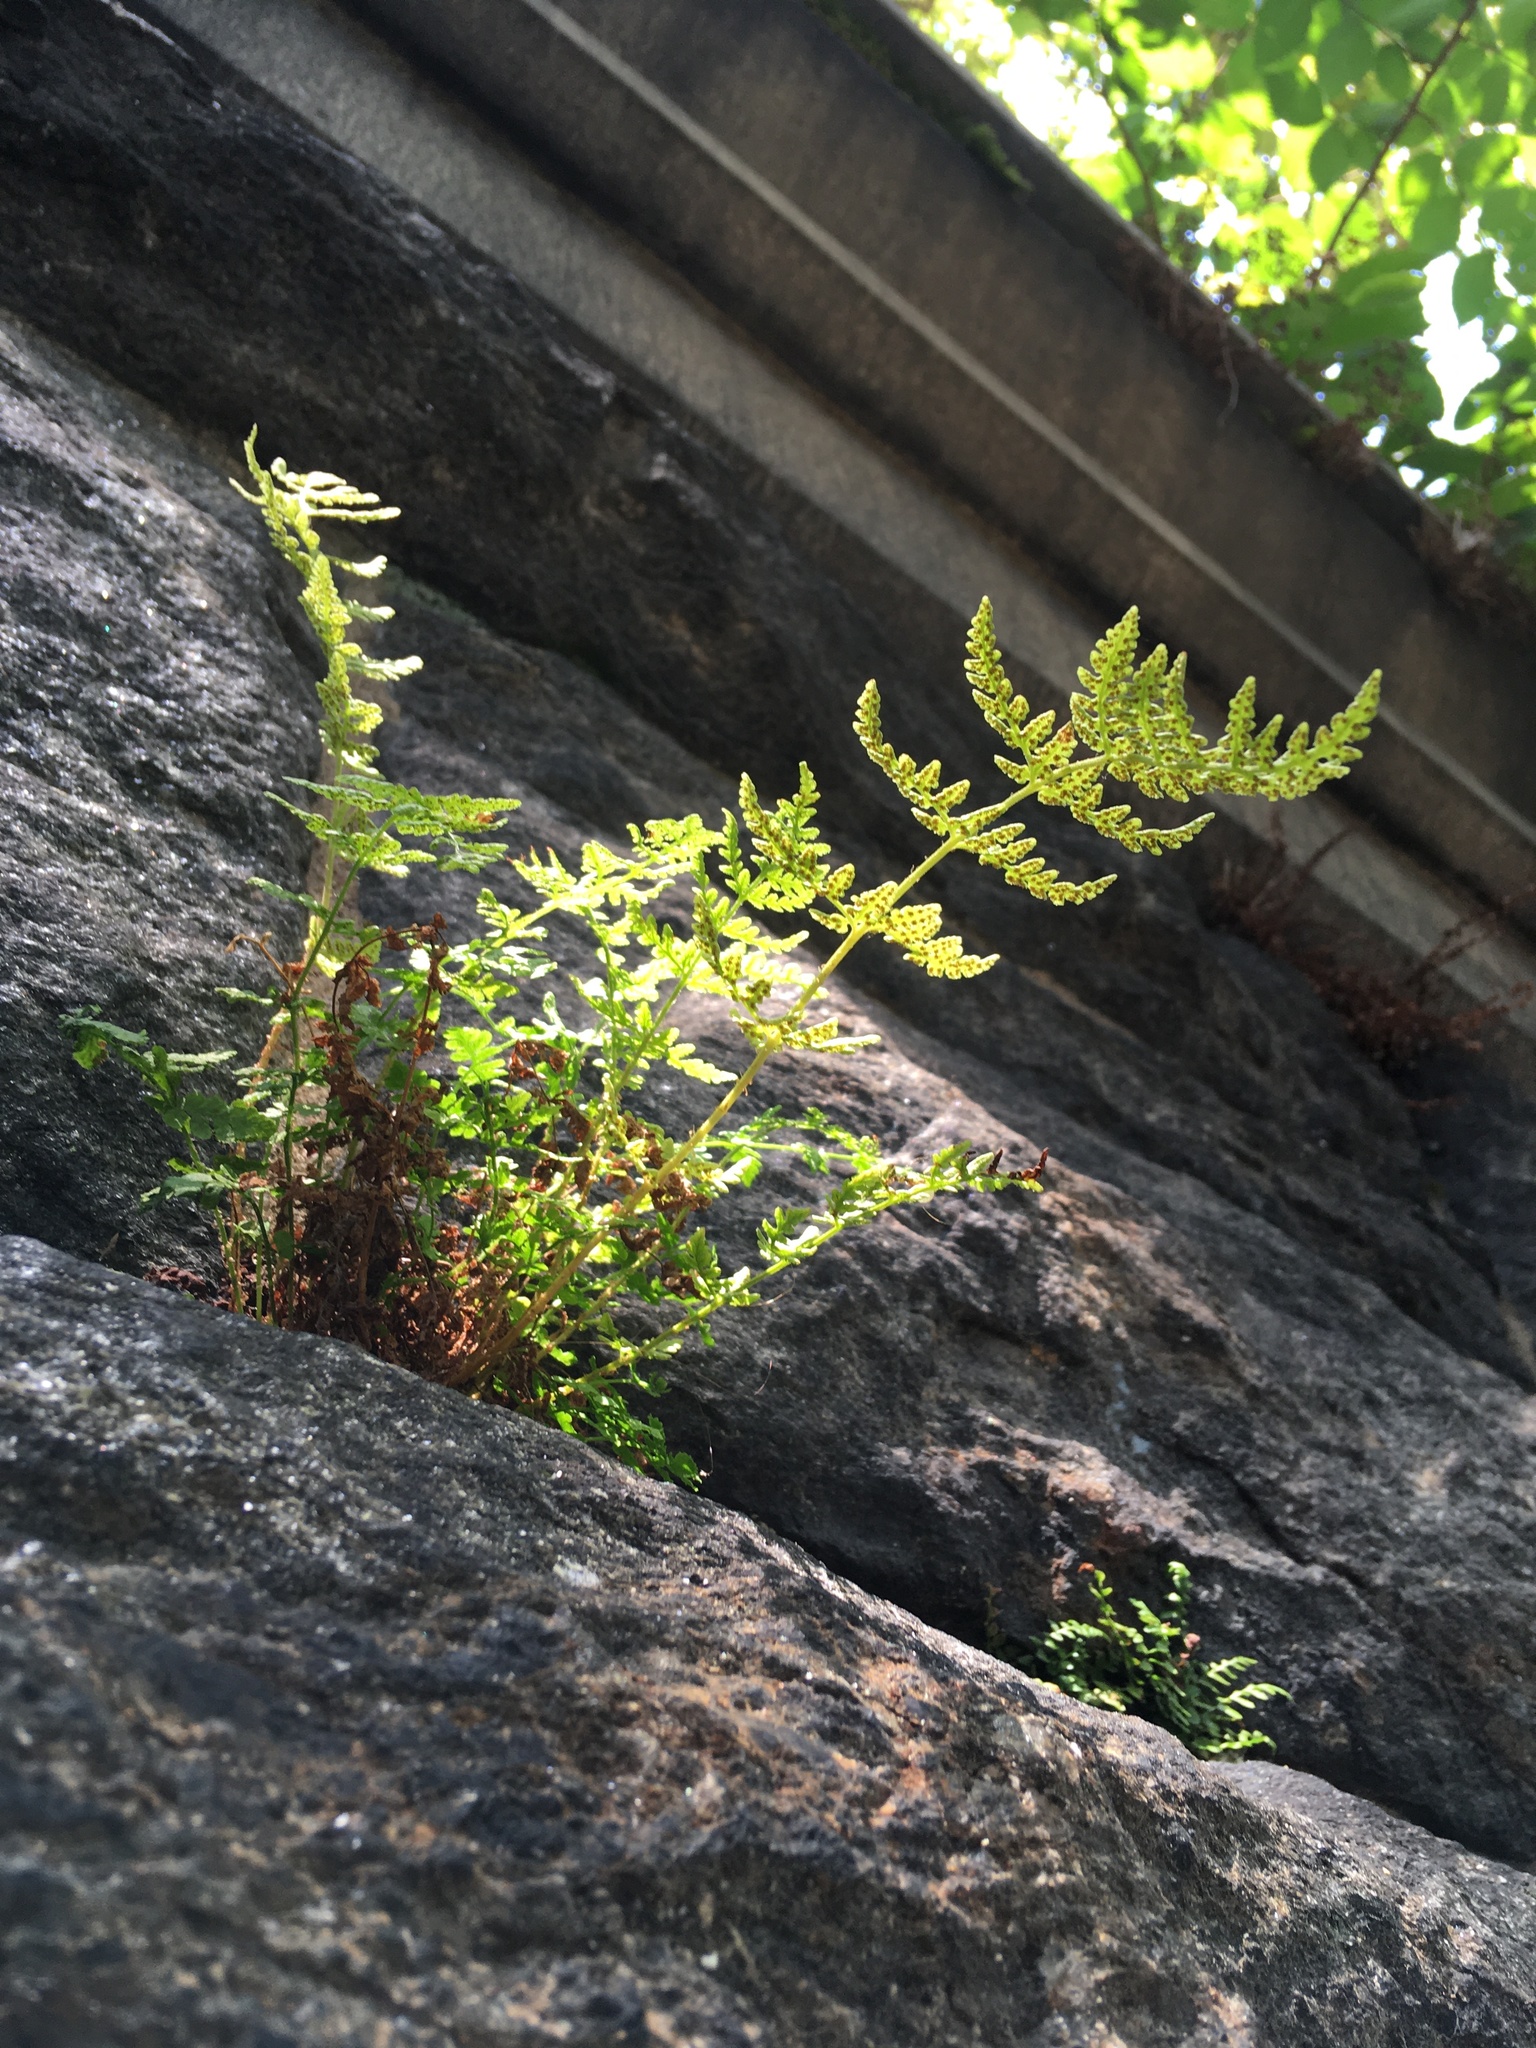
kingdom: Plantae
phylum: Tracheophyta
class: Polypodiopsida
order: Polypodiales
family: Woodsiaceae
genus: Physematium
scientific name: Physematium obtusum
